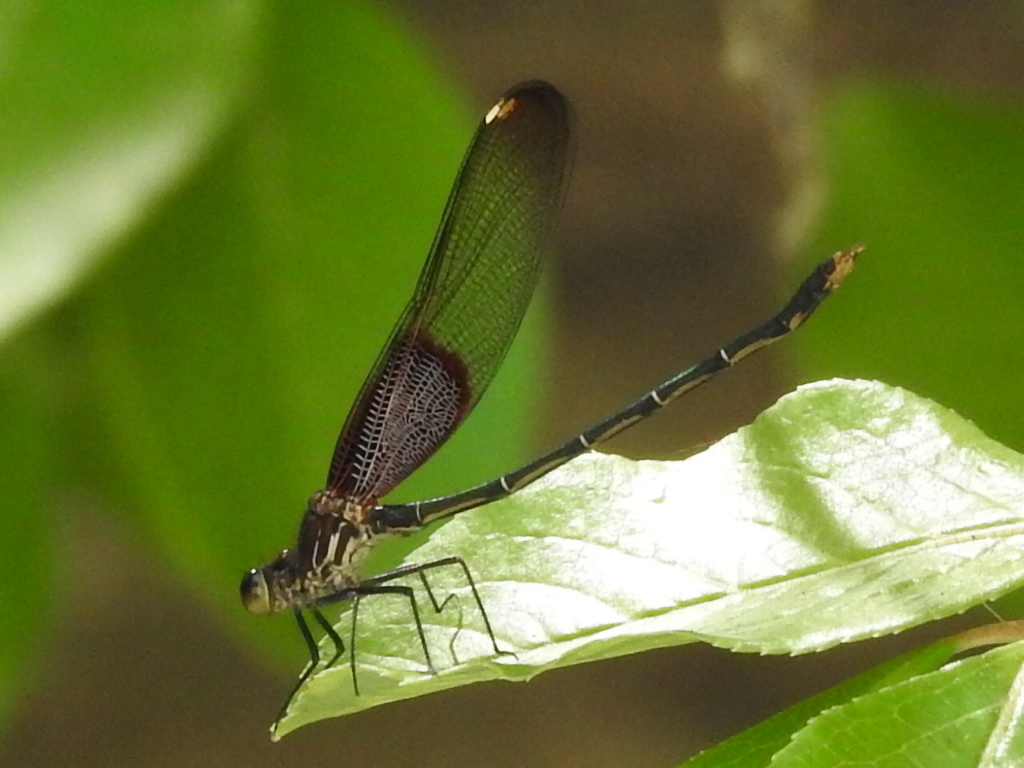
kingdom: Animalia
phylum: Arthropoda
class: Insecta
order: Odonata
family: Calopterygidae
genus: Hetaerina
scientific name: Hetaerina americana
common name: American rubyspot
